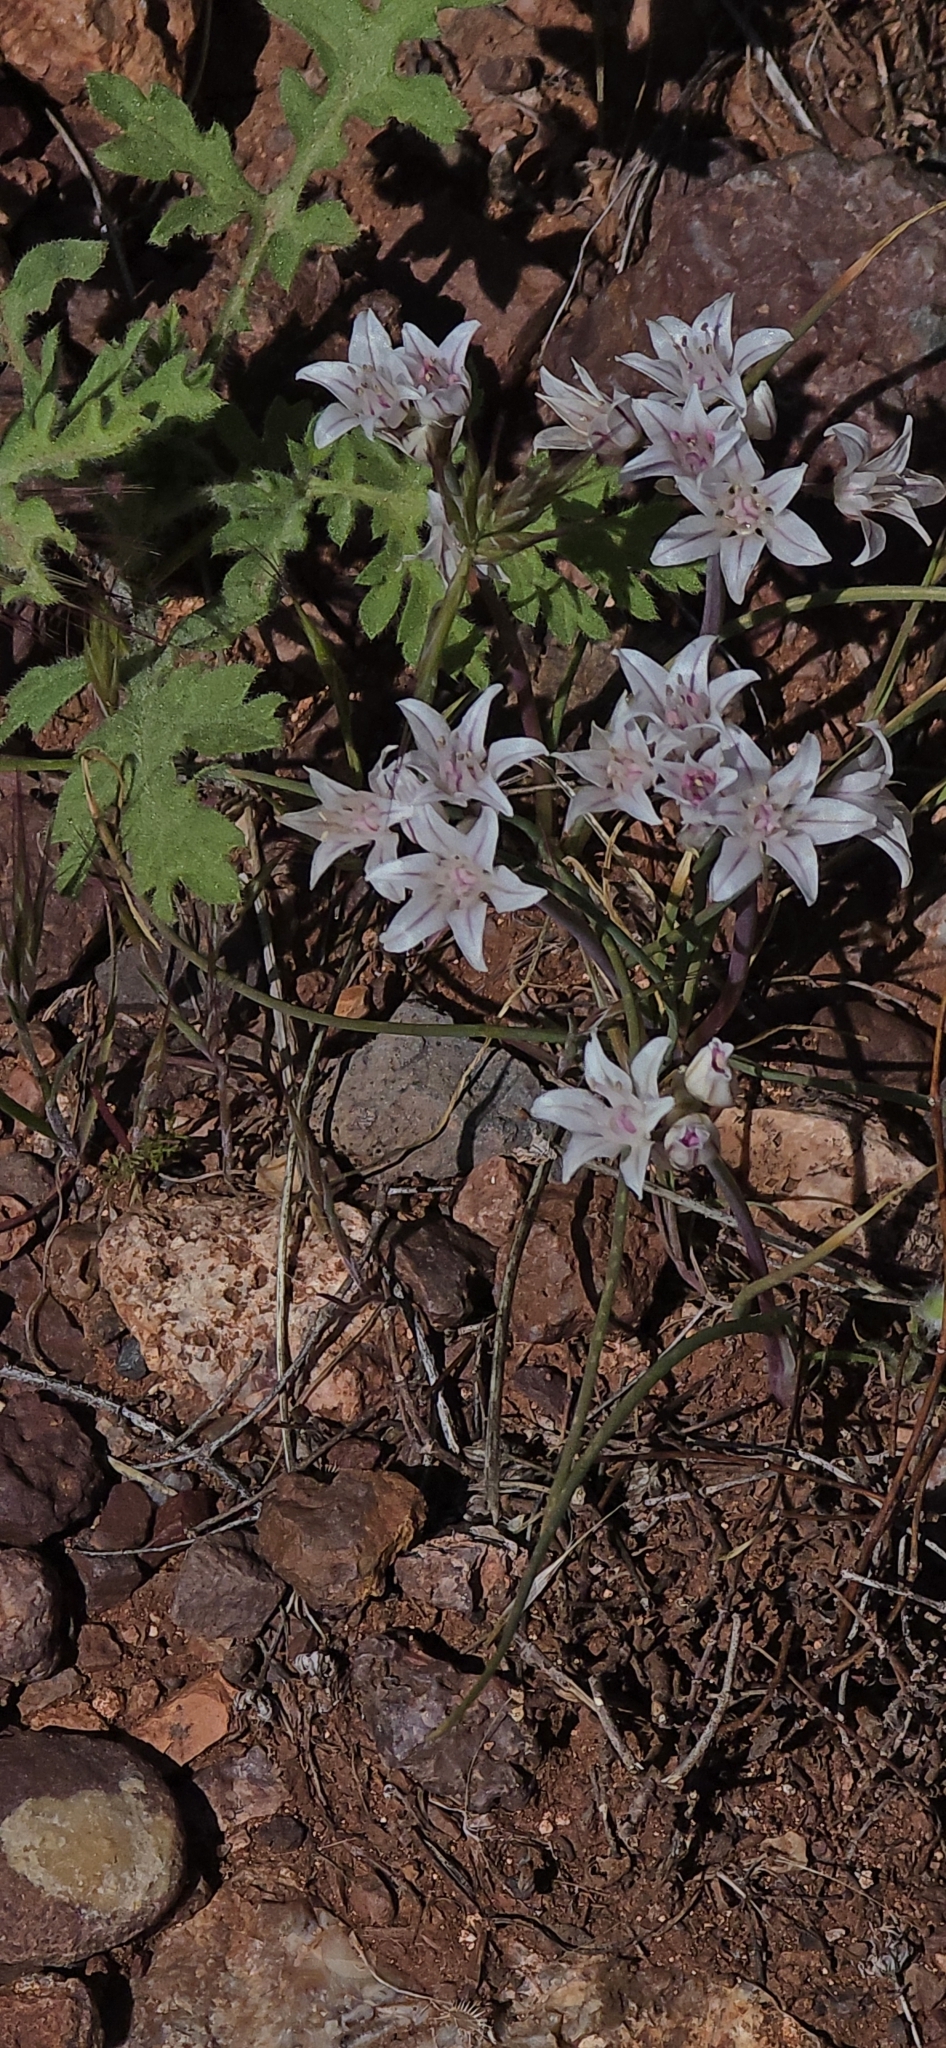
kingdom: Plantae
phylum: Tracheophyta
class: Liliopsida
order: Asparagales
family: Amaryllidaceae
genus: Allium
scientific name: Allium macropetalum
